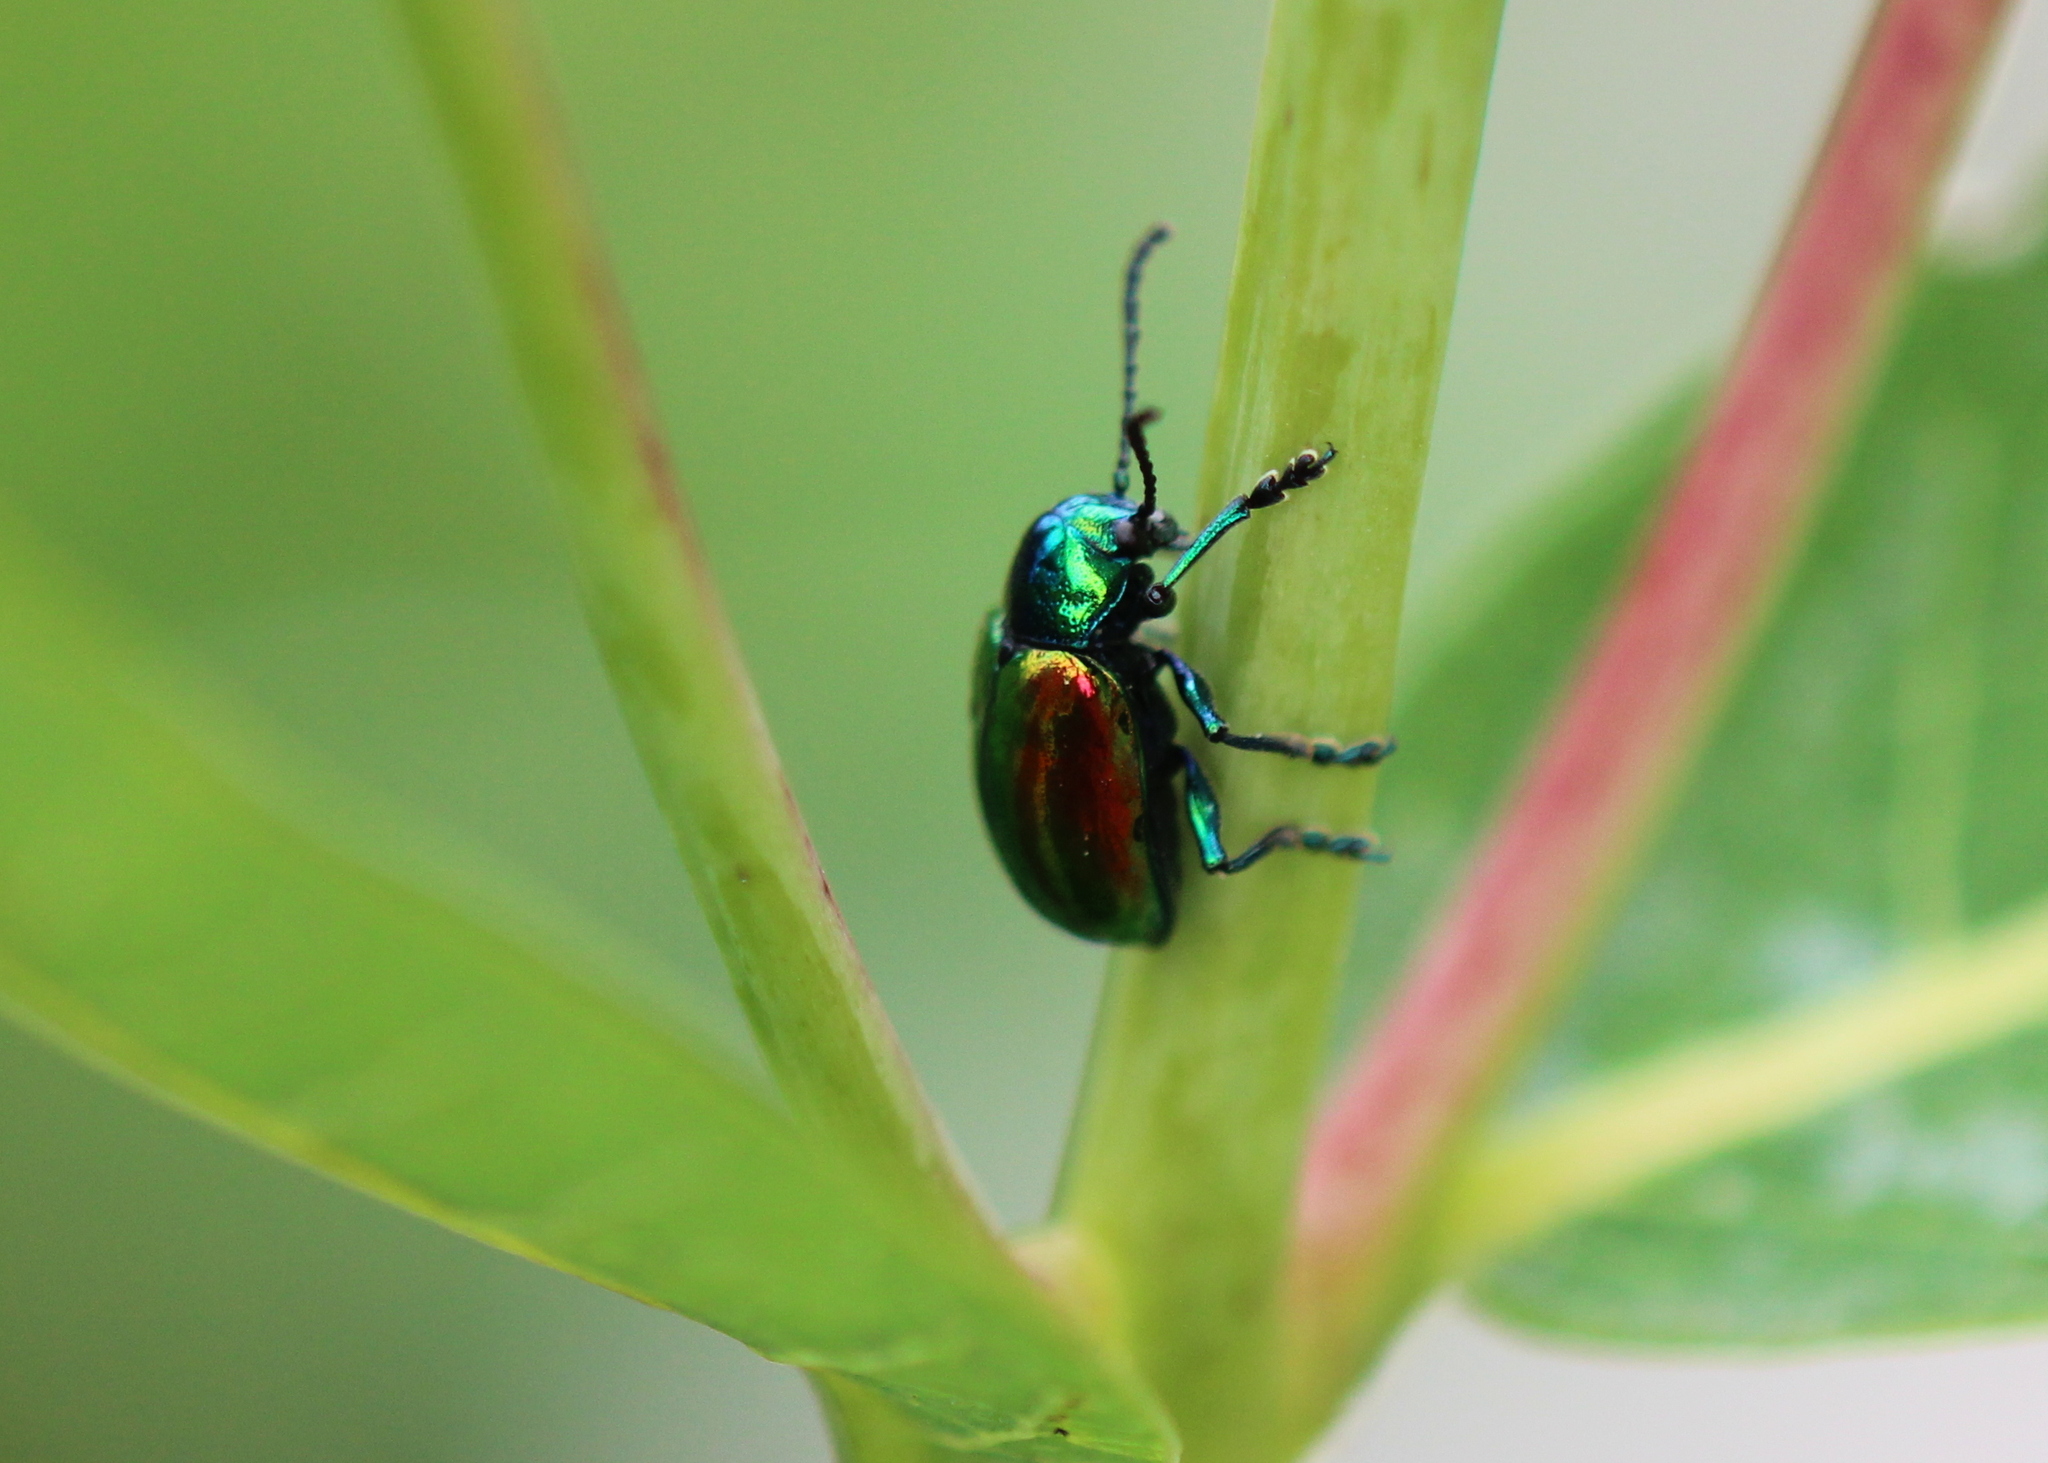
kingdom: Animalia
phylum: Arthropoda
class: Insecta
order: Coleoptera
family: Chrysomelidae
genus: Chrysochus
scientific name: Chrysochus auratus
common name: Dogbane leaf beetle
